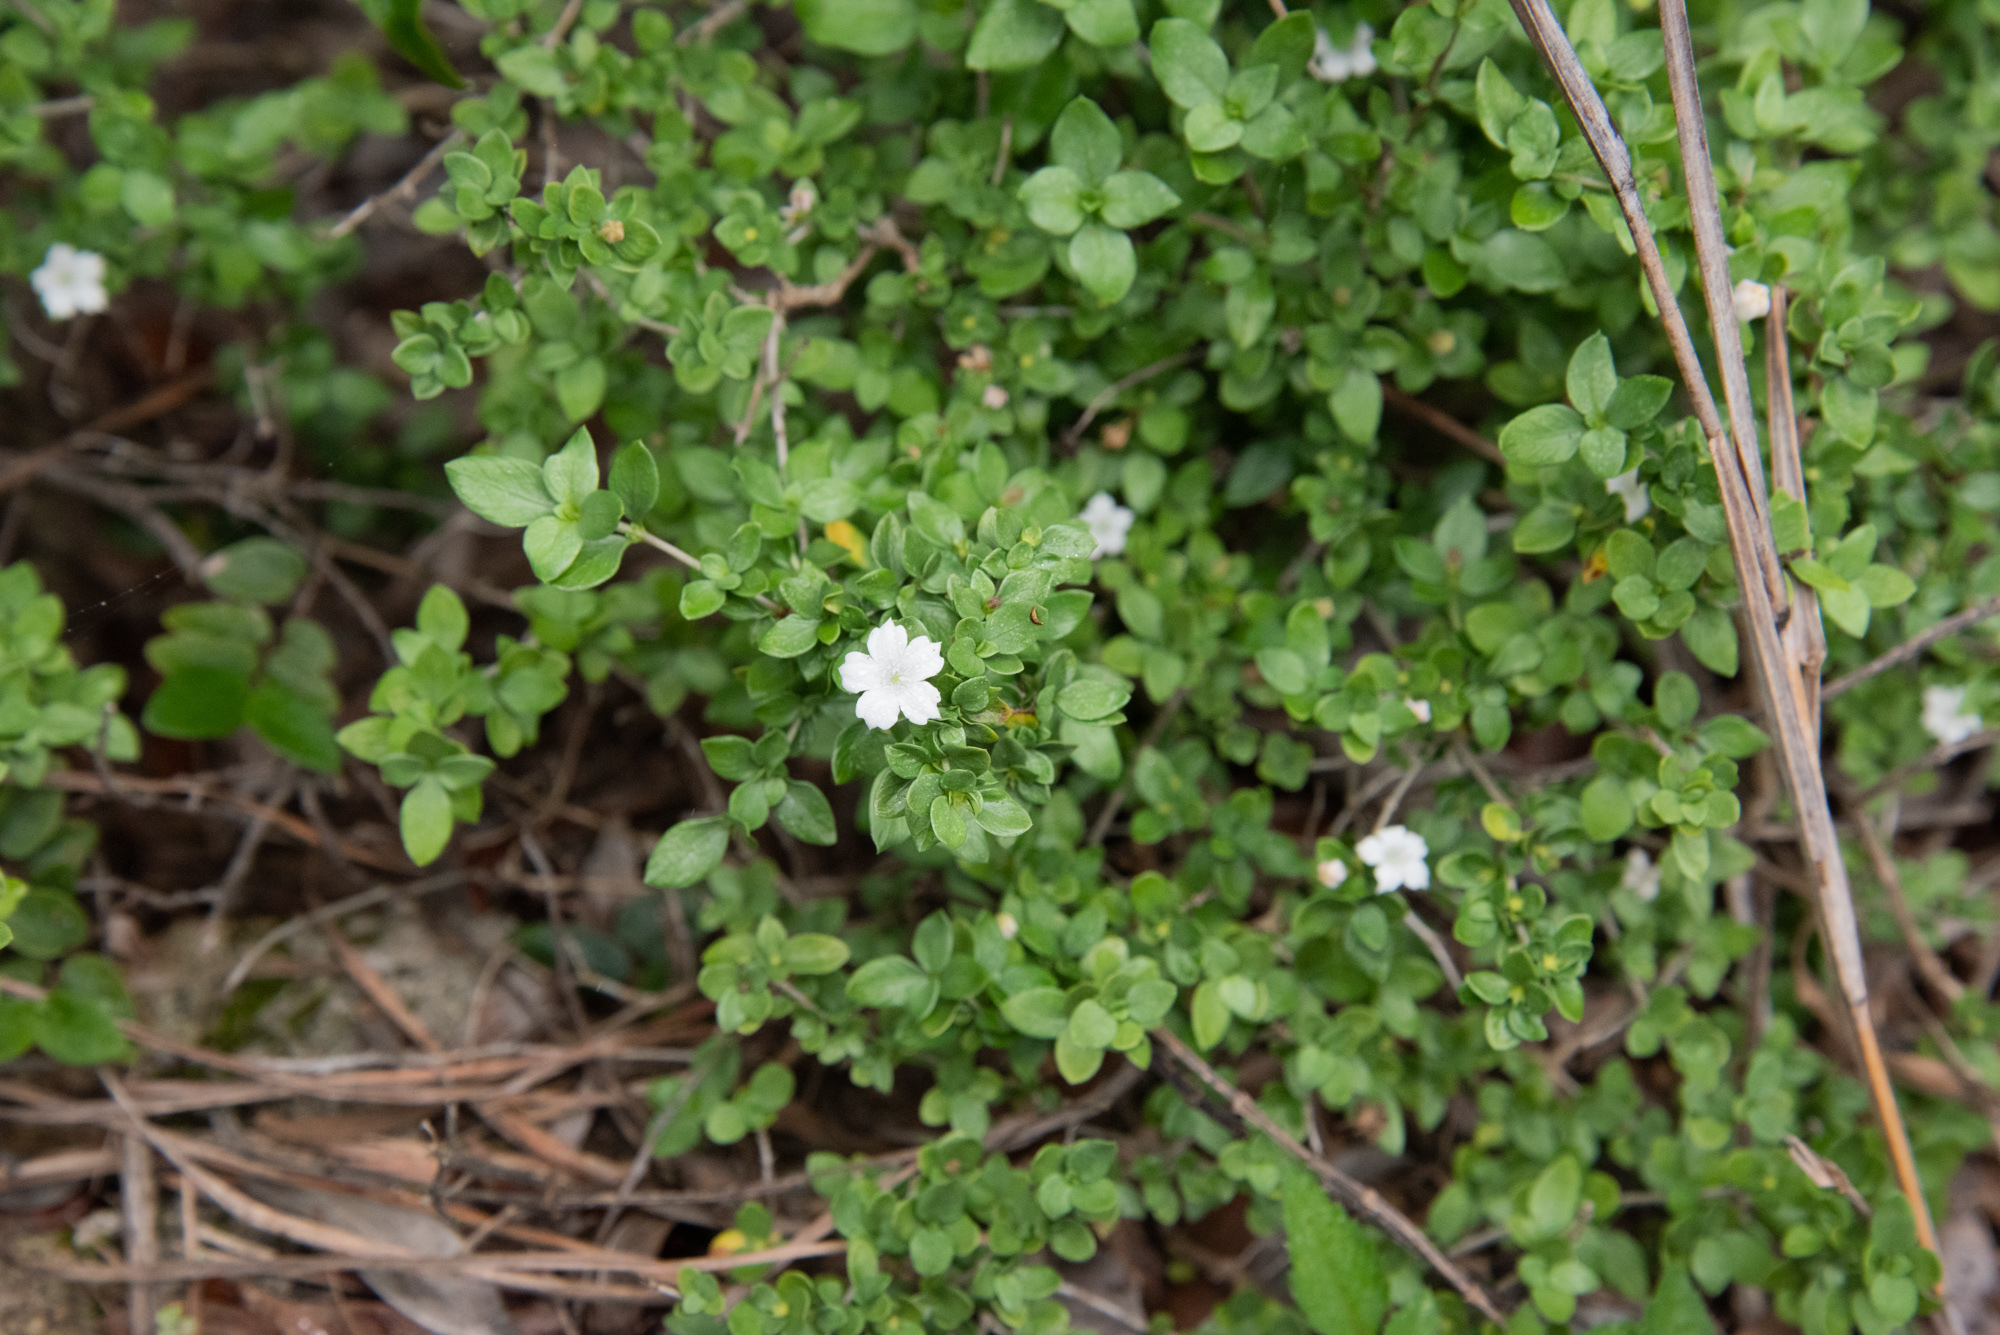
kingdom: Plantae
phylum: Tracheophyta
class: Magnoliopsida
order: Gentianales
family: Rubiaceae
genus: Buchozia
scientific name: Buchozia japonica
